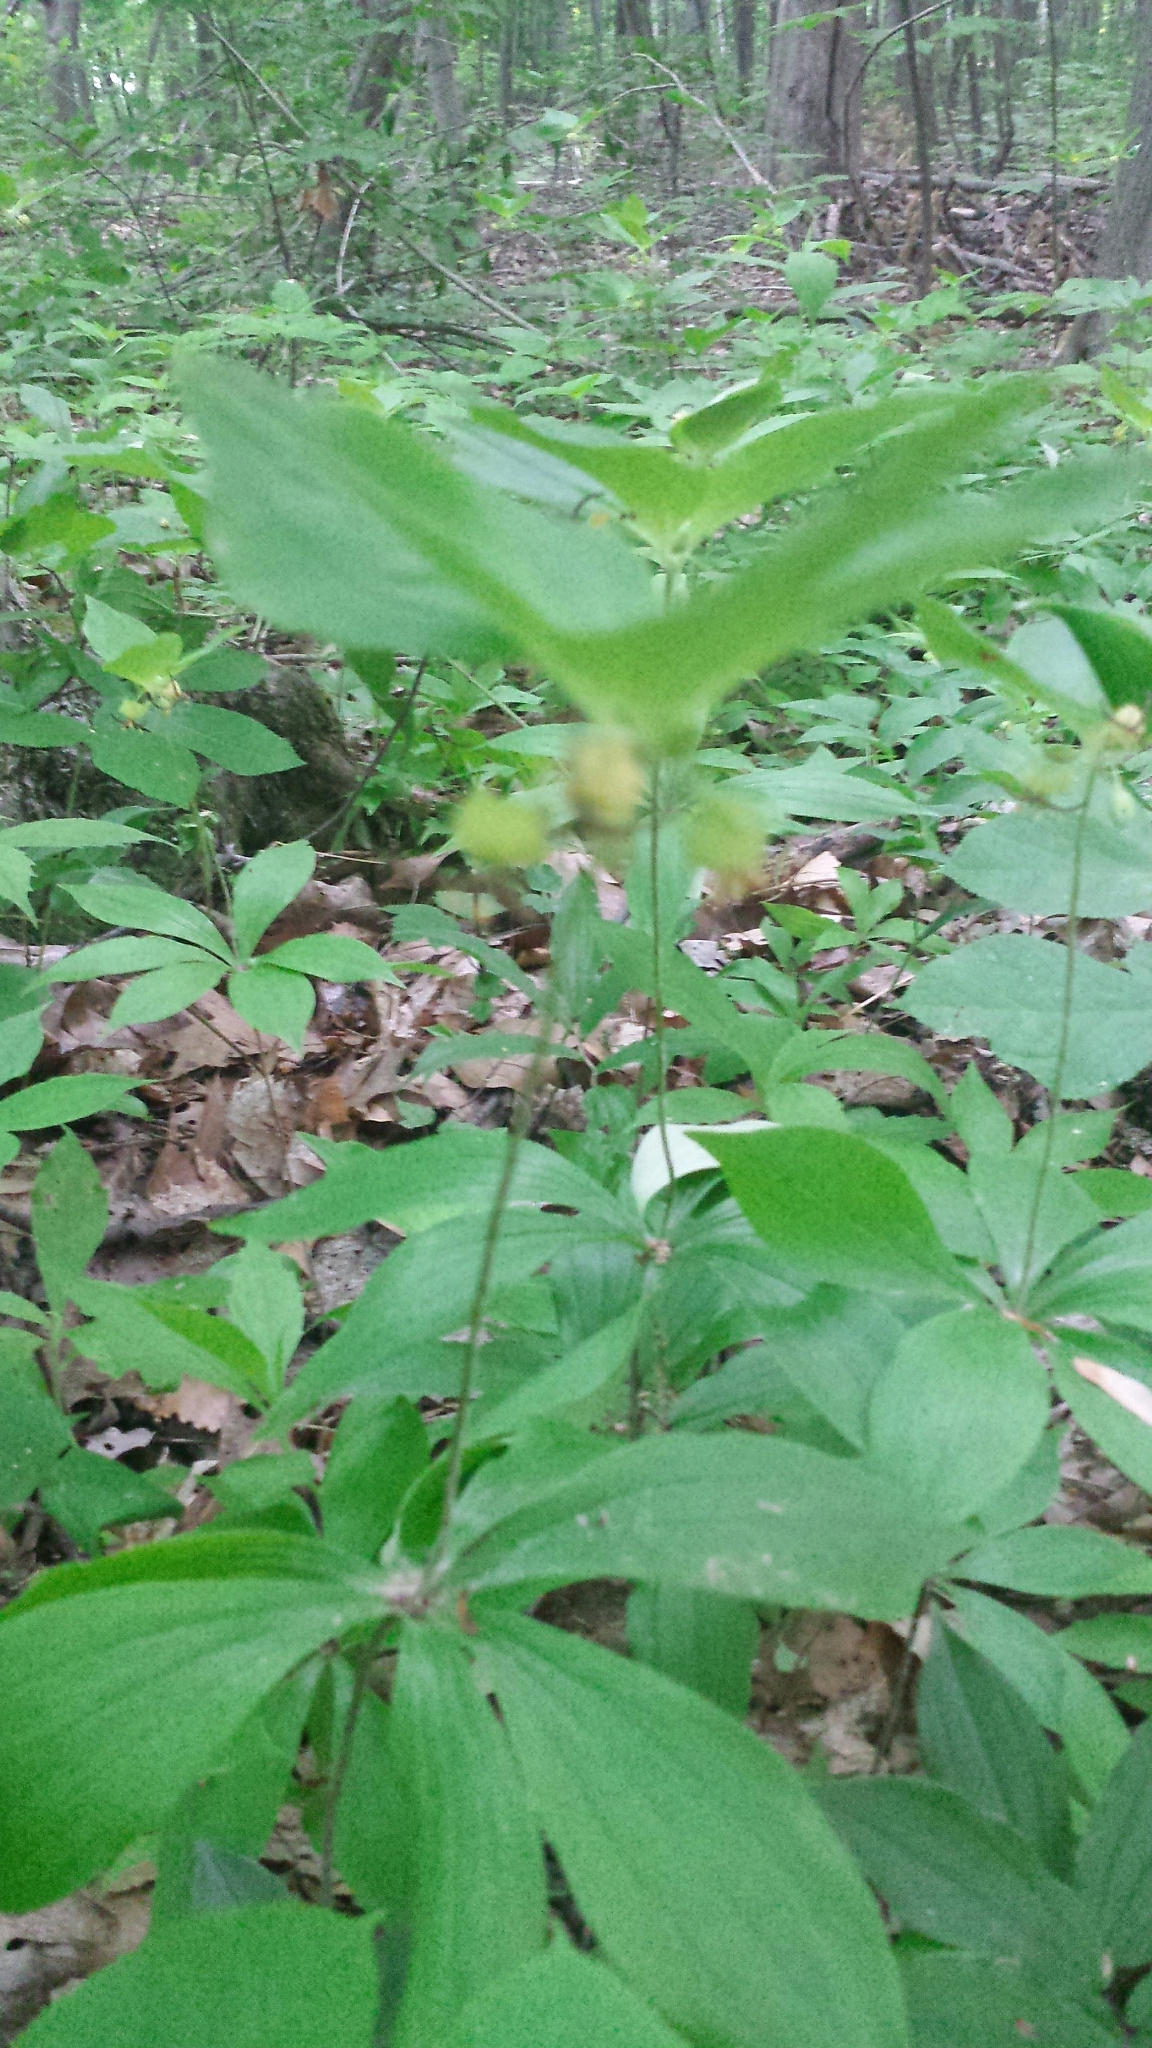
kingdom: Plantae
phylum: Tracheophyta
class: Liliopsida
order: Liliales
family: Liliaceae
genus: Medeola
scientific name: Medeola virginiana
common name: Indian cucumber-root
